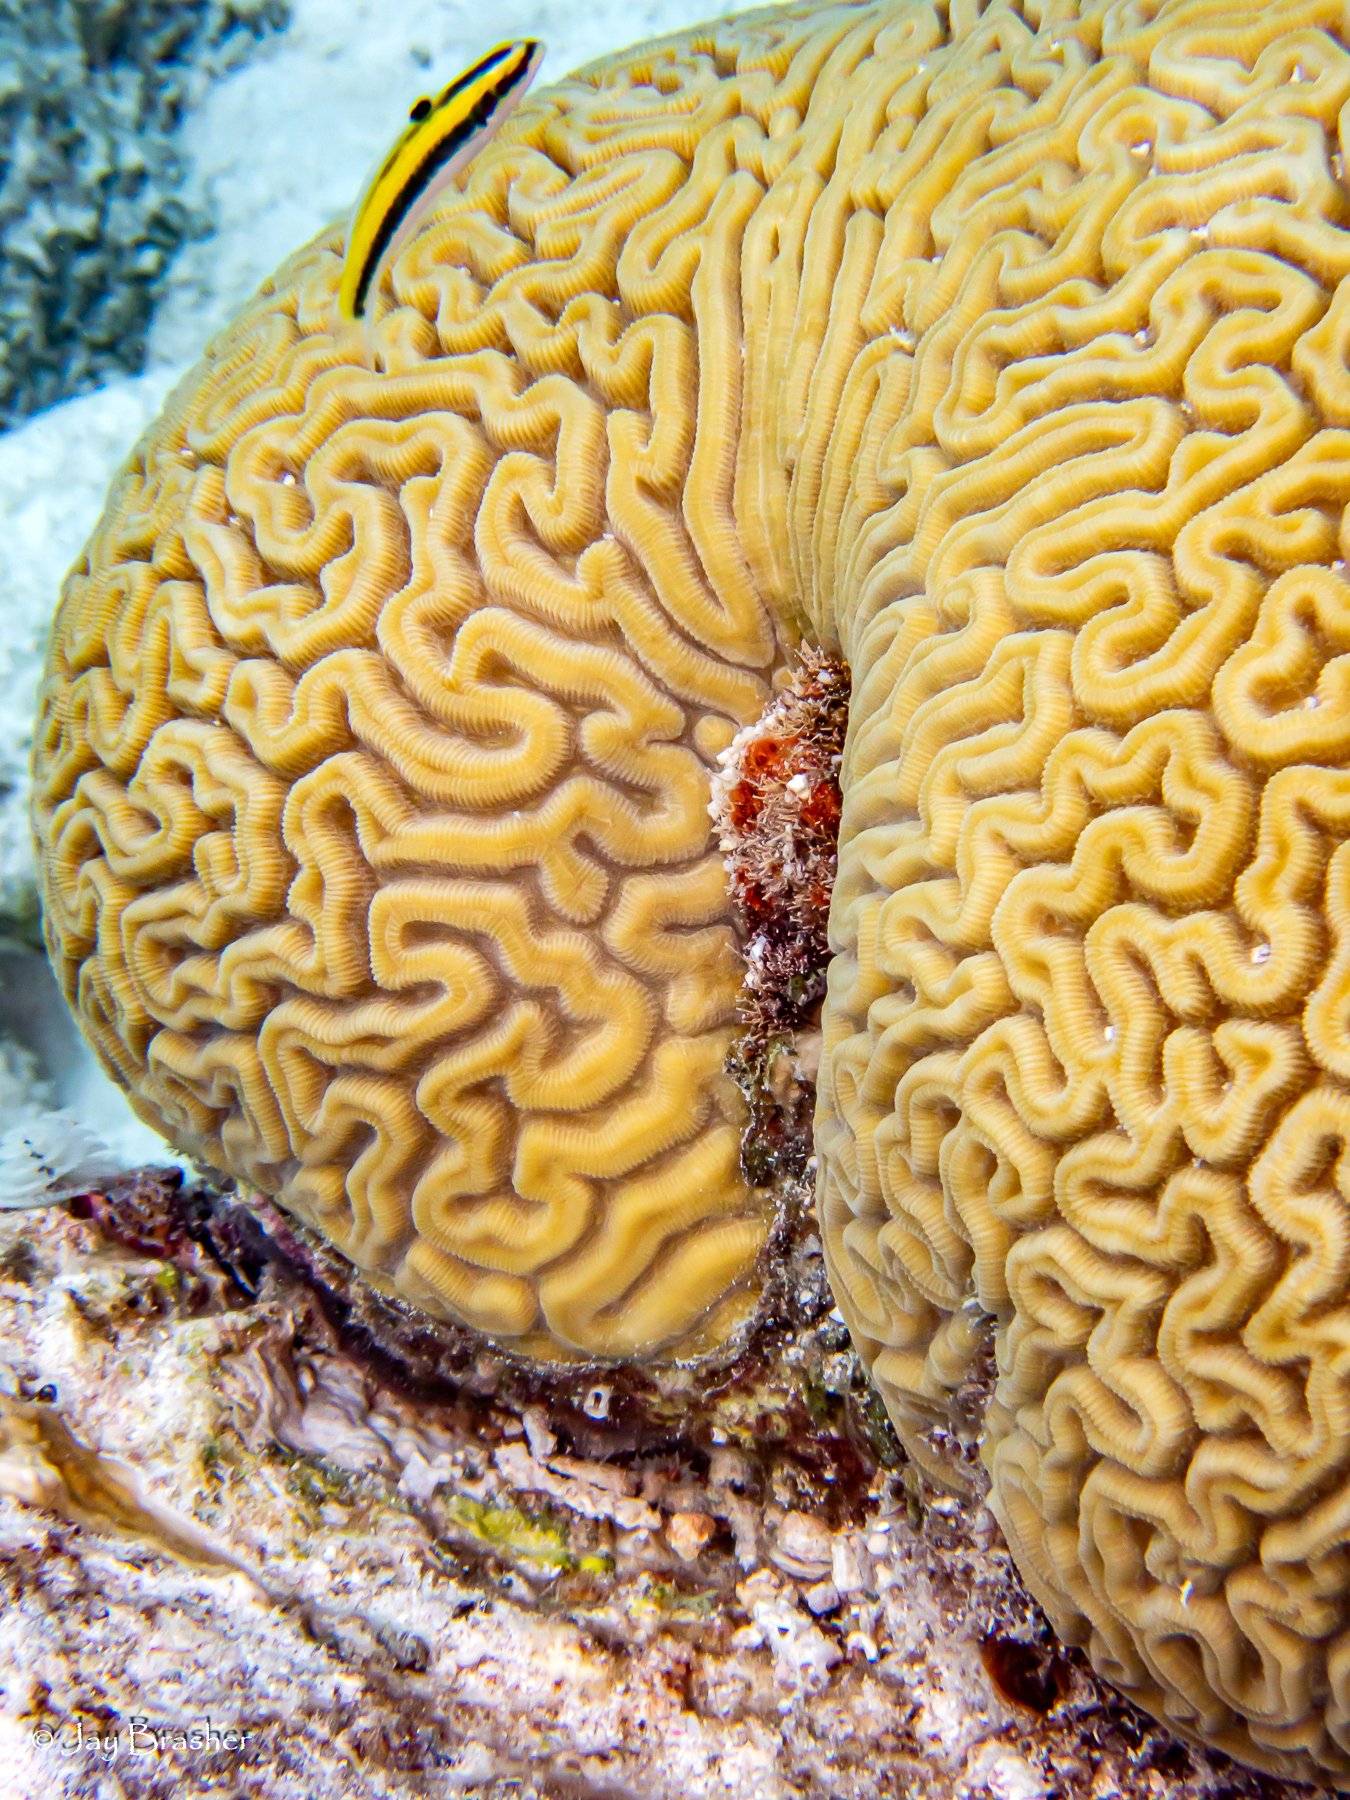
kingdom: Animalia
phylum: Cnidaria
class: Anthozoa
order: Scleractinia
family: Faviidae
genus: Diploria
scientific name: Diploria labyrinthiformis
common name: Grooved brain coral
